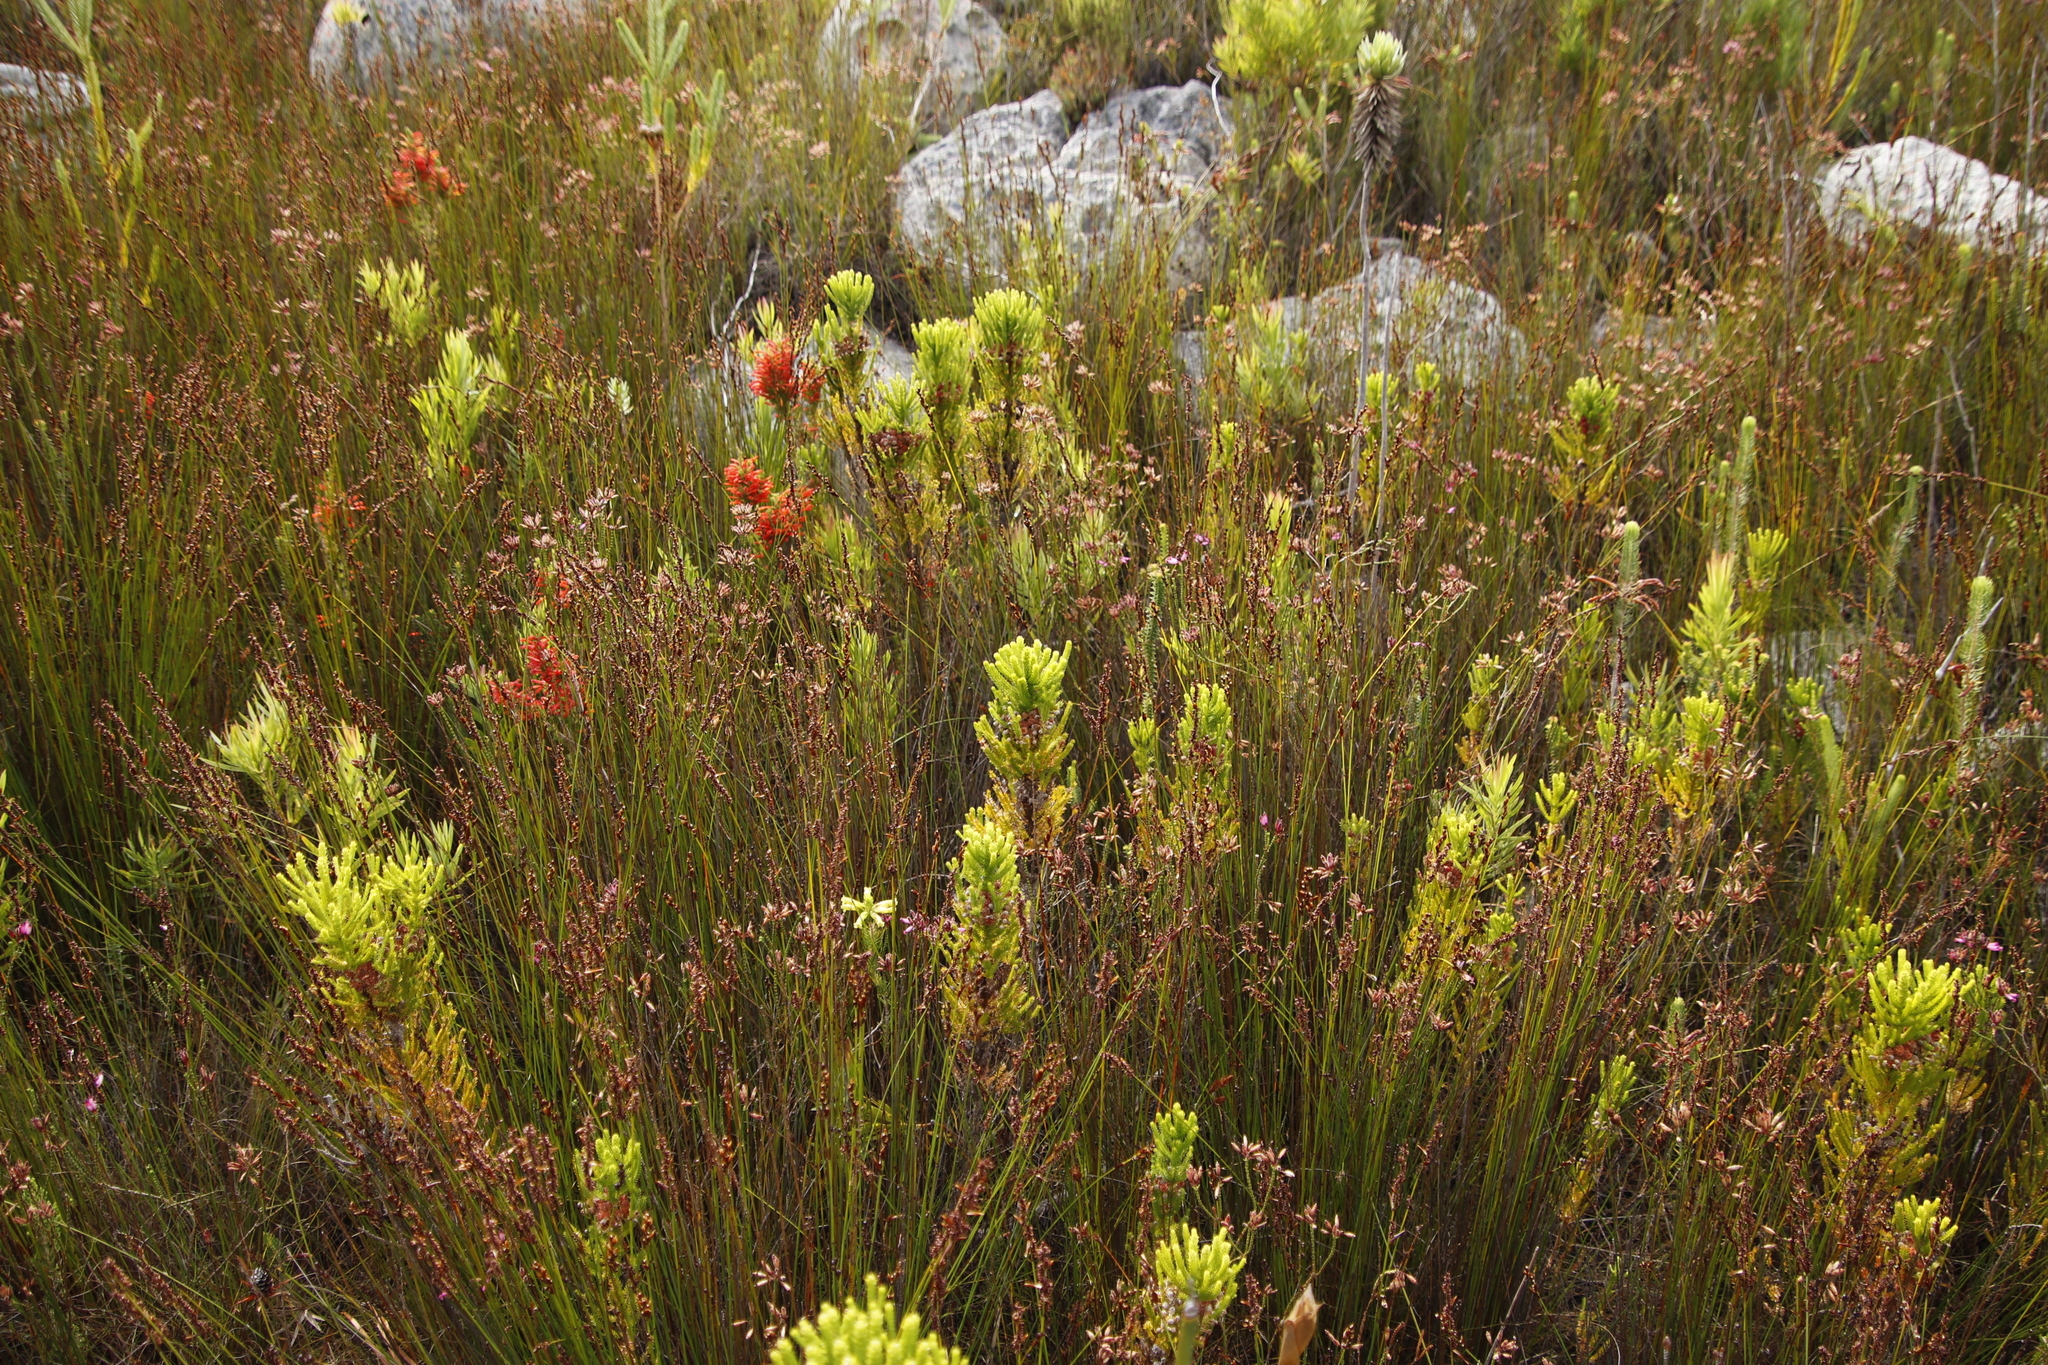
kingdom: Plantae
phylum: Tracheophyta
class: Magnoliopsida
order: Bruniales
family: Bruniaceae
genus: Berzelia
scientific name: Berzelia alopecurioides
